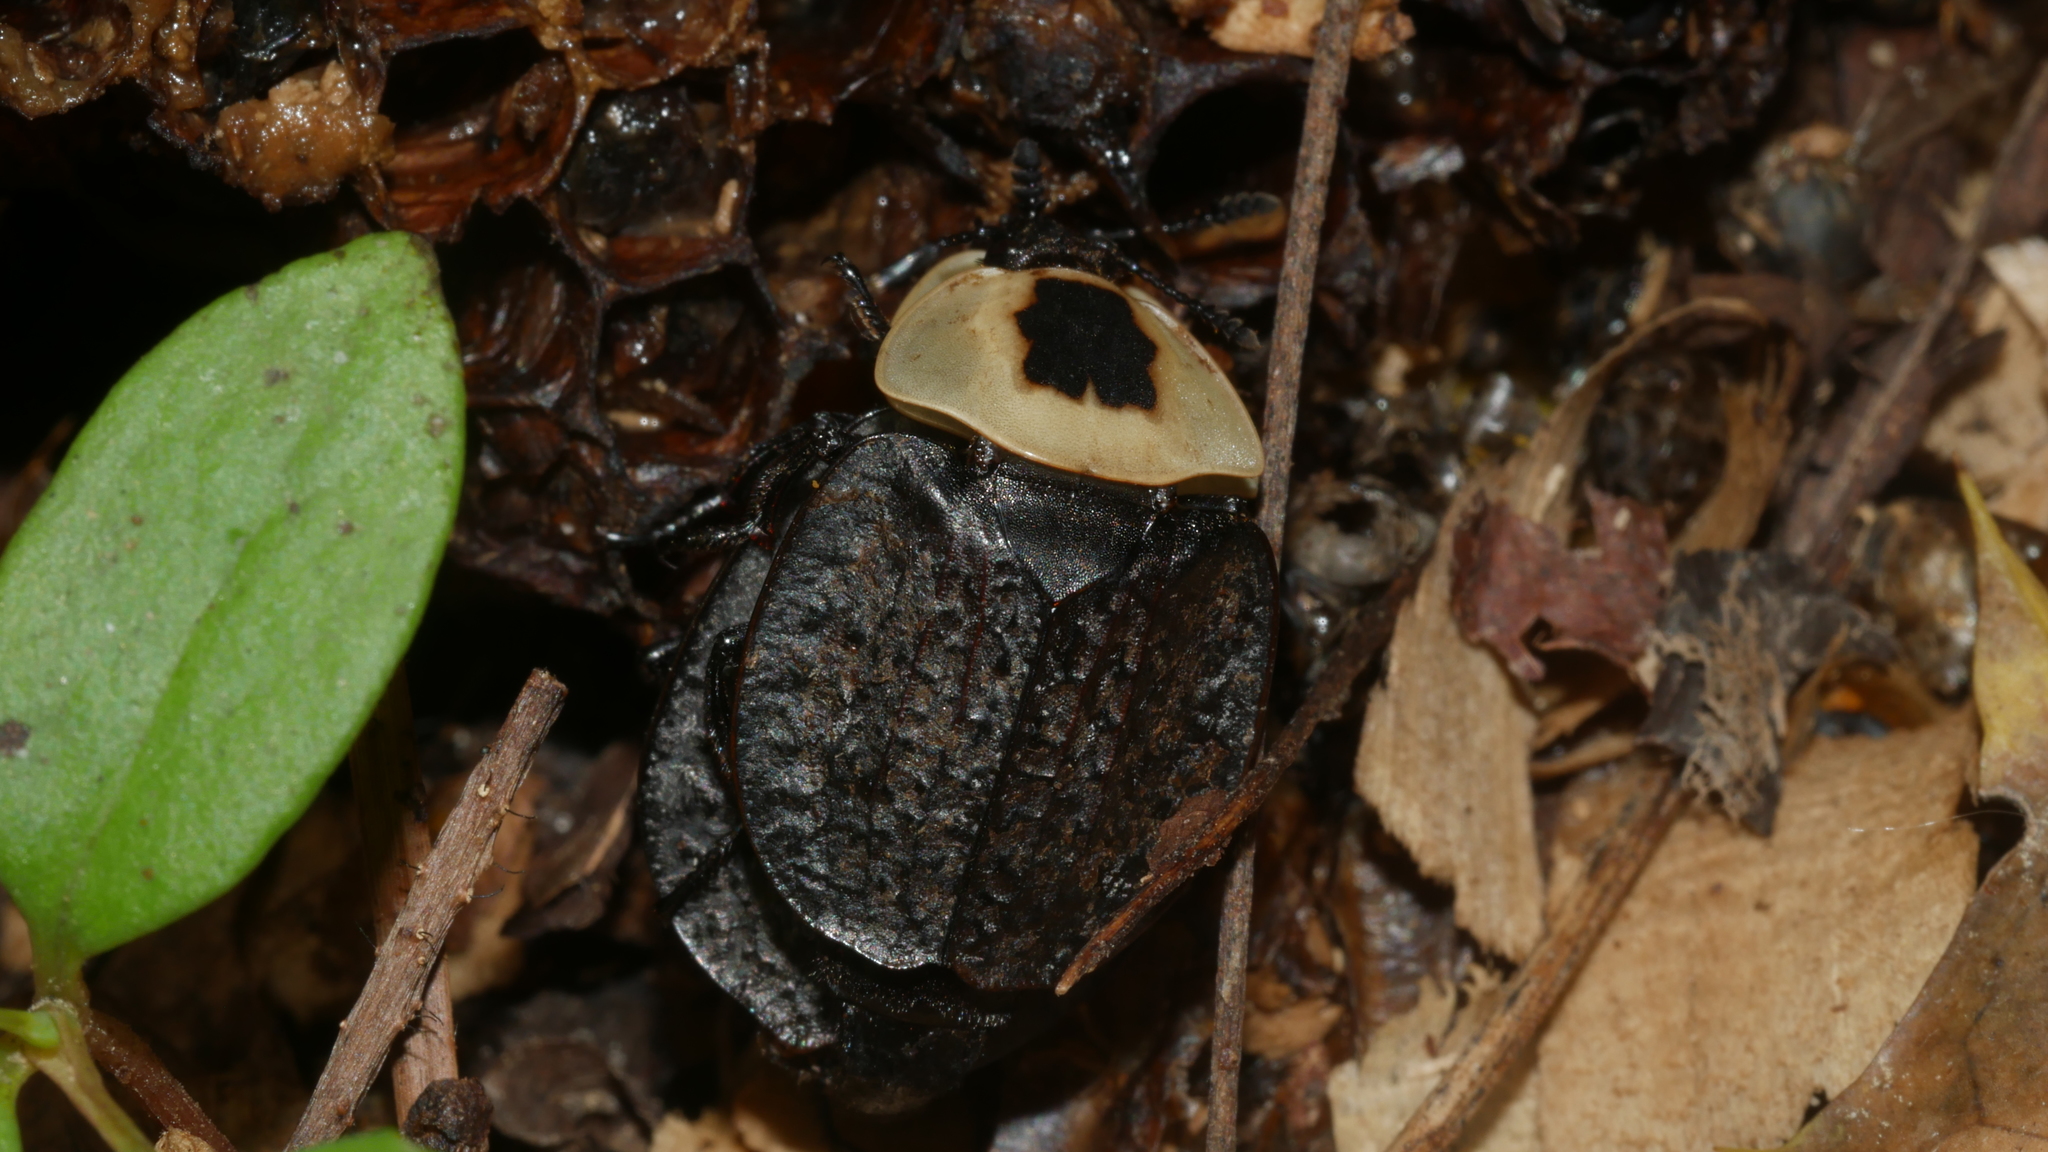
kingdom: Animalia
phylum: Arthropoda
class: Insecta
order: Coleoptera
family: Staphylinidae
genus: Necrophila
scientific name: Necrophila americana
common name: American carrion beetle
